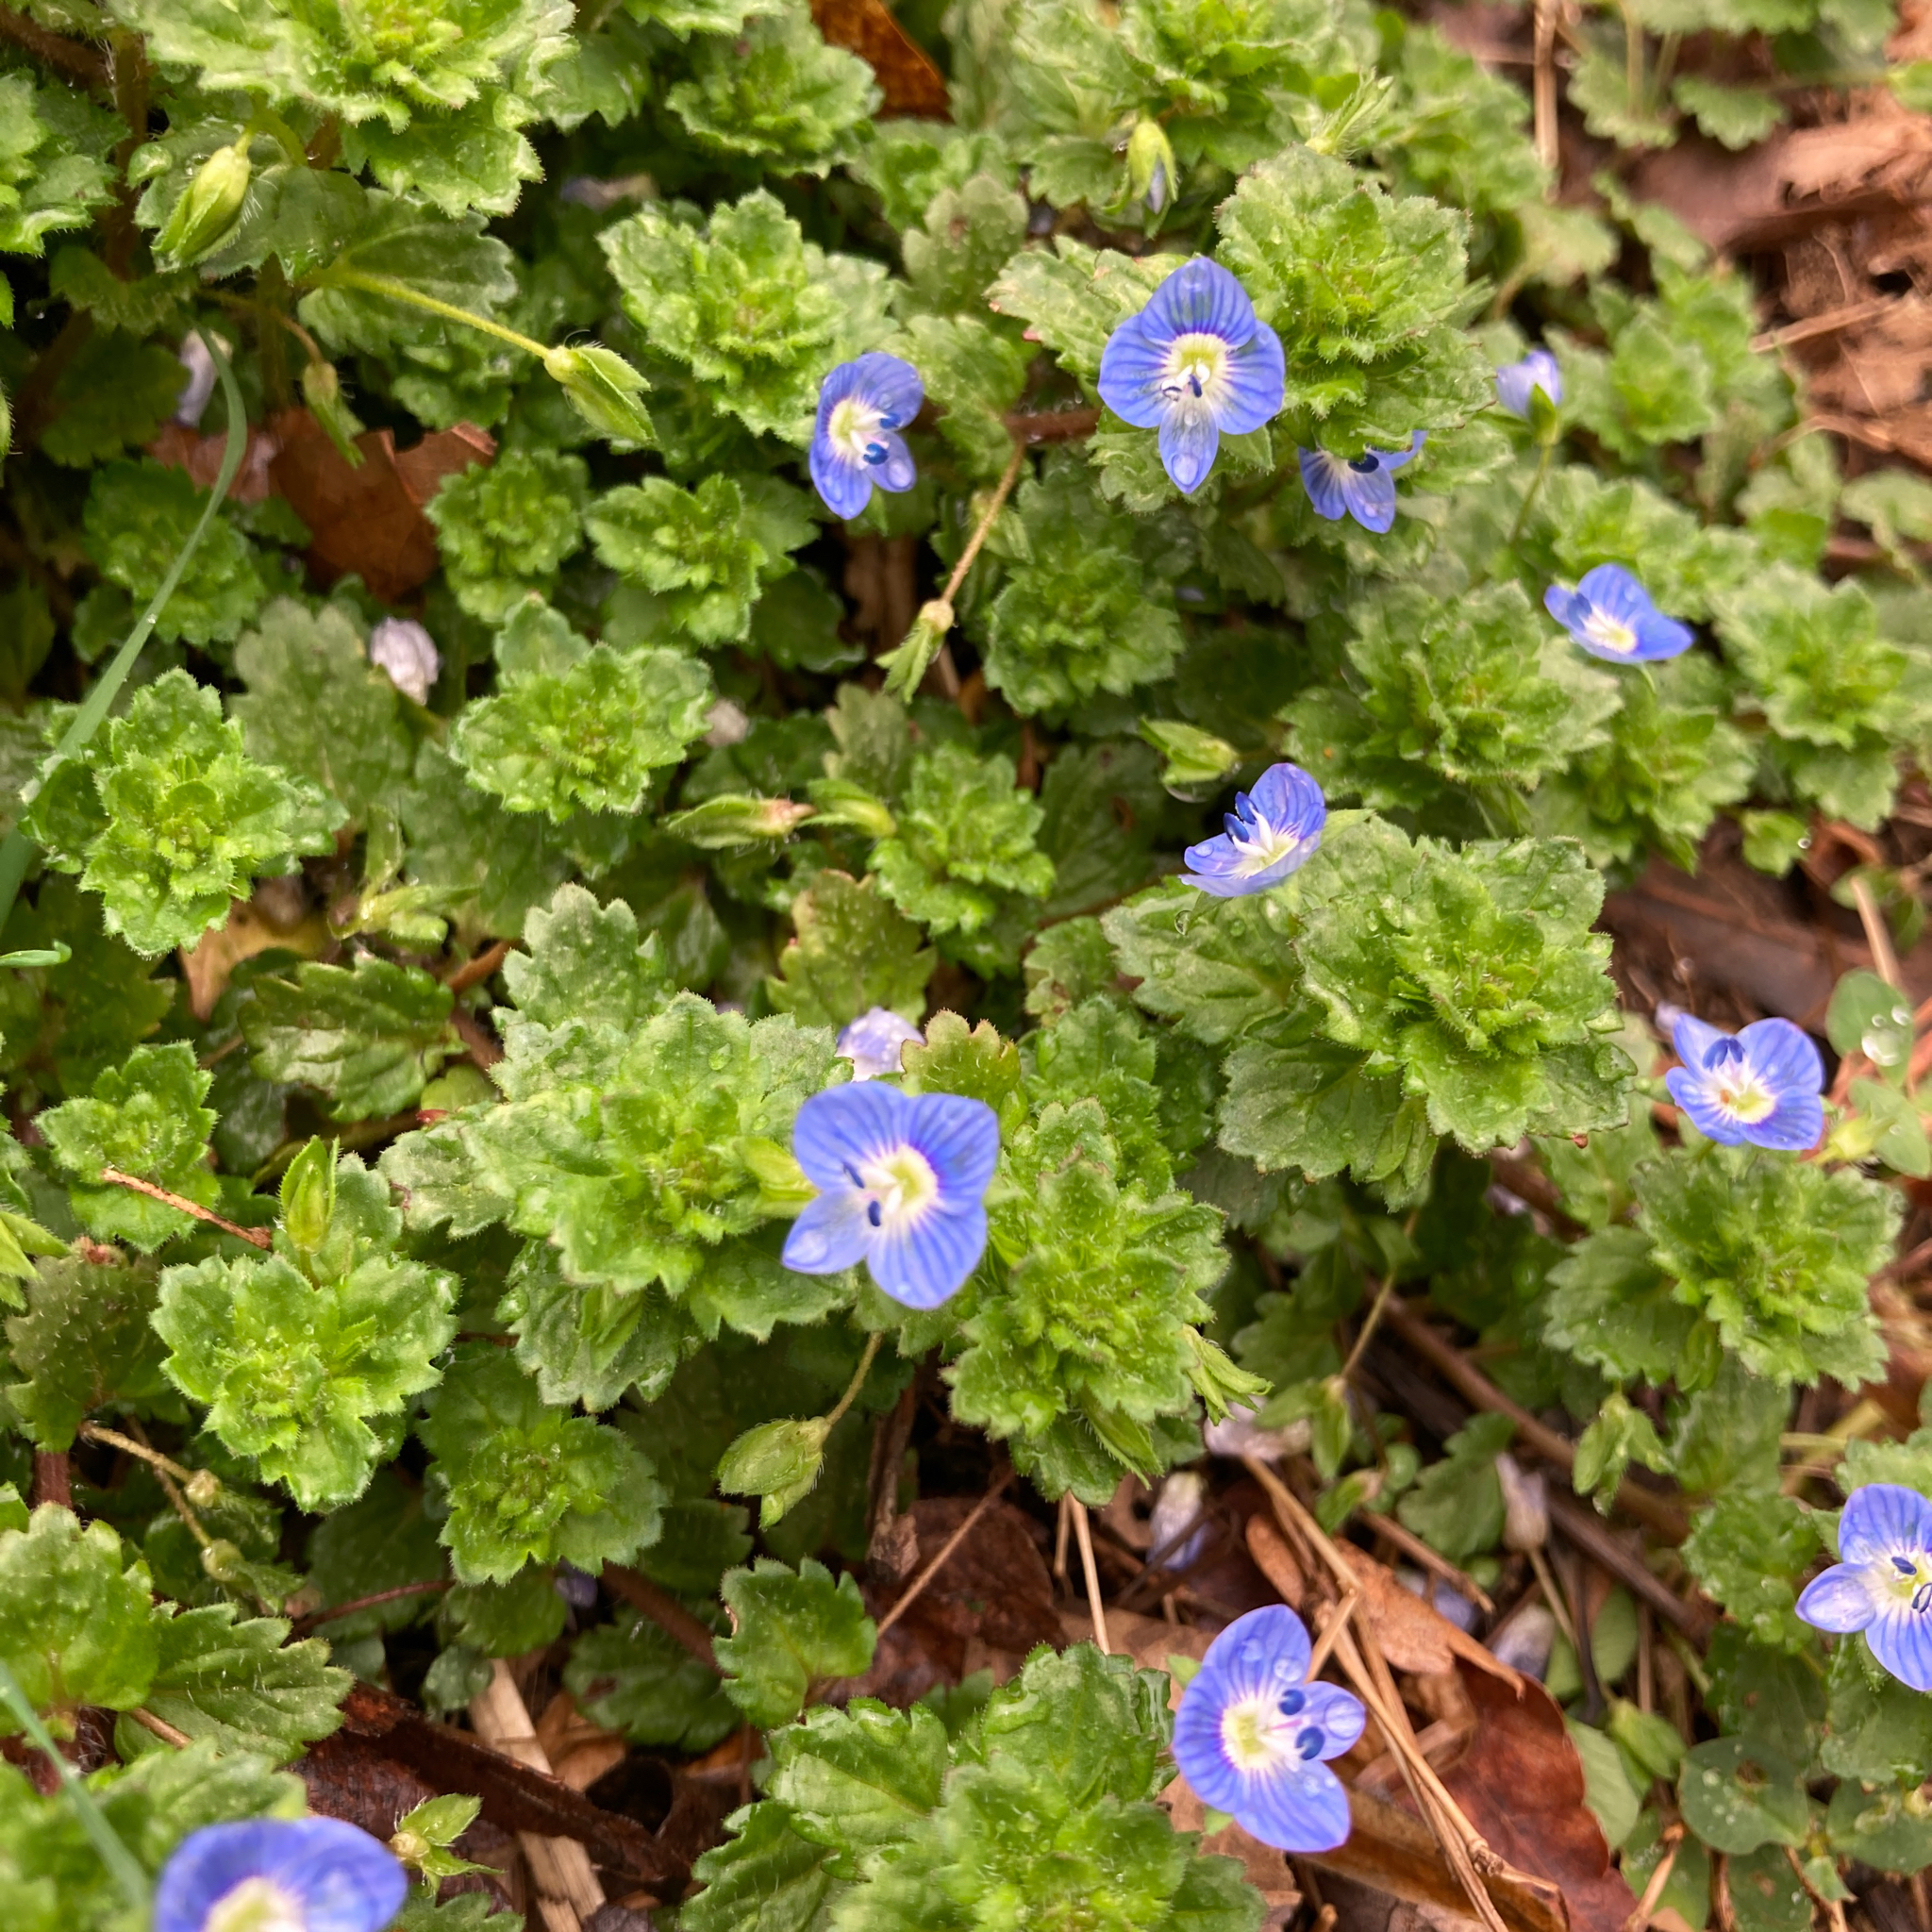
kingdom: Plantae
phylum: Tracheophyta
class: Magnoliopsida
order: Lamiales
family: Plantaginaceae
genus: Veronica
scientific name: Veronica persica
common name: Common field-speedwell
